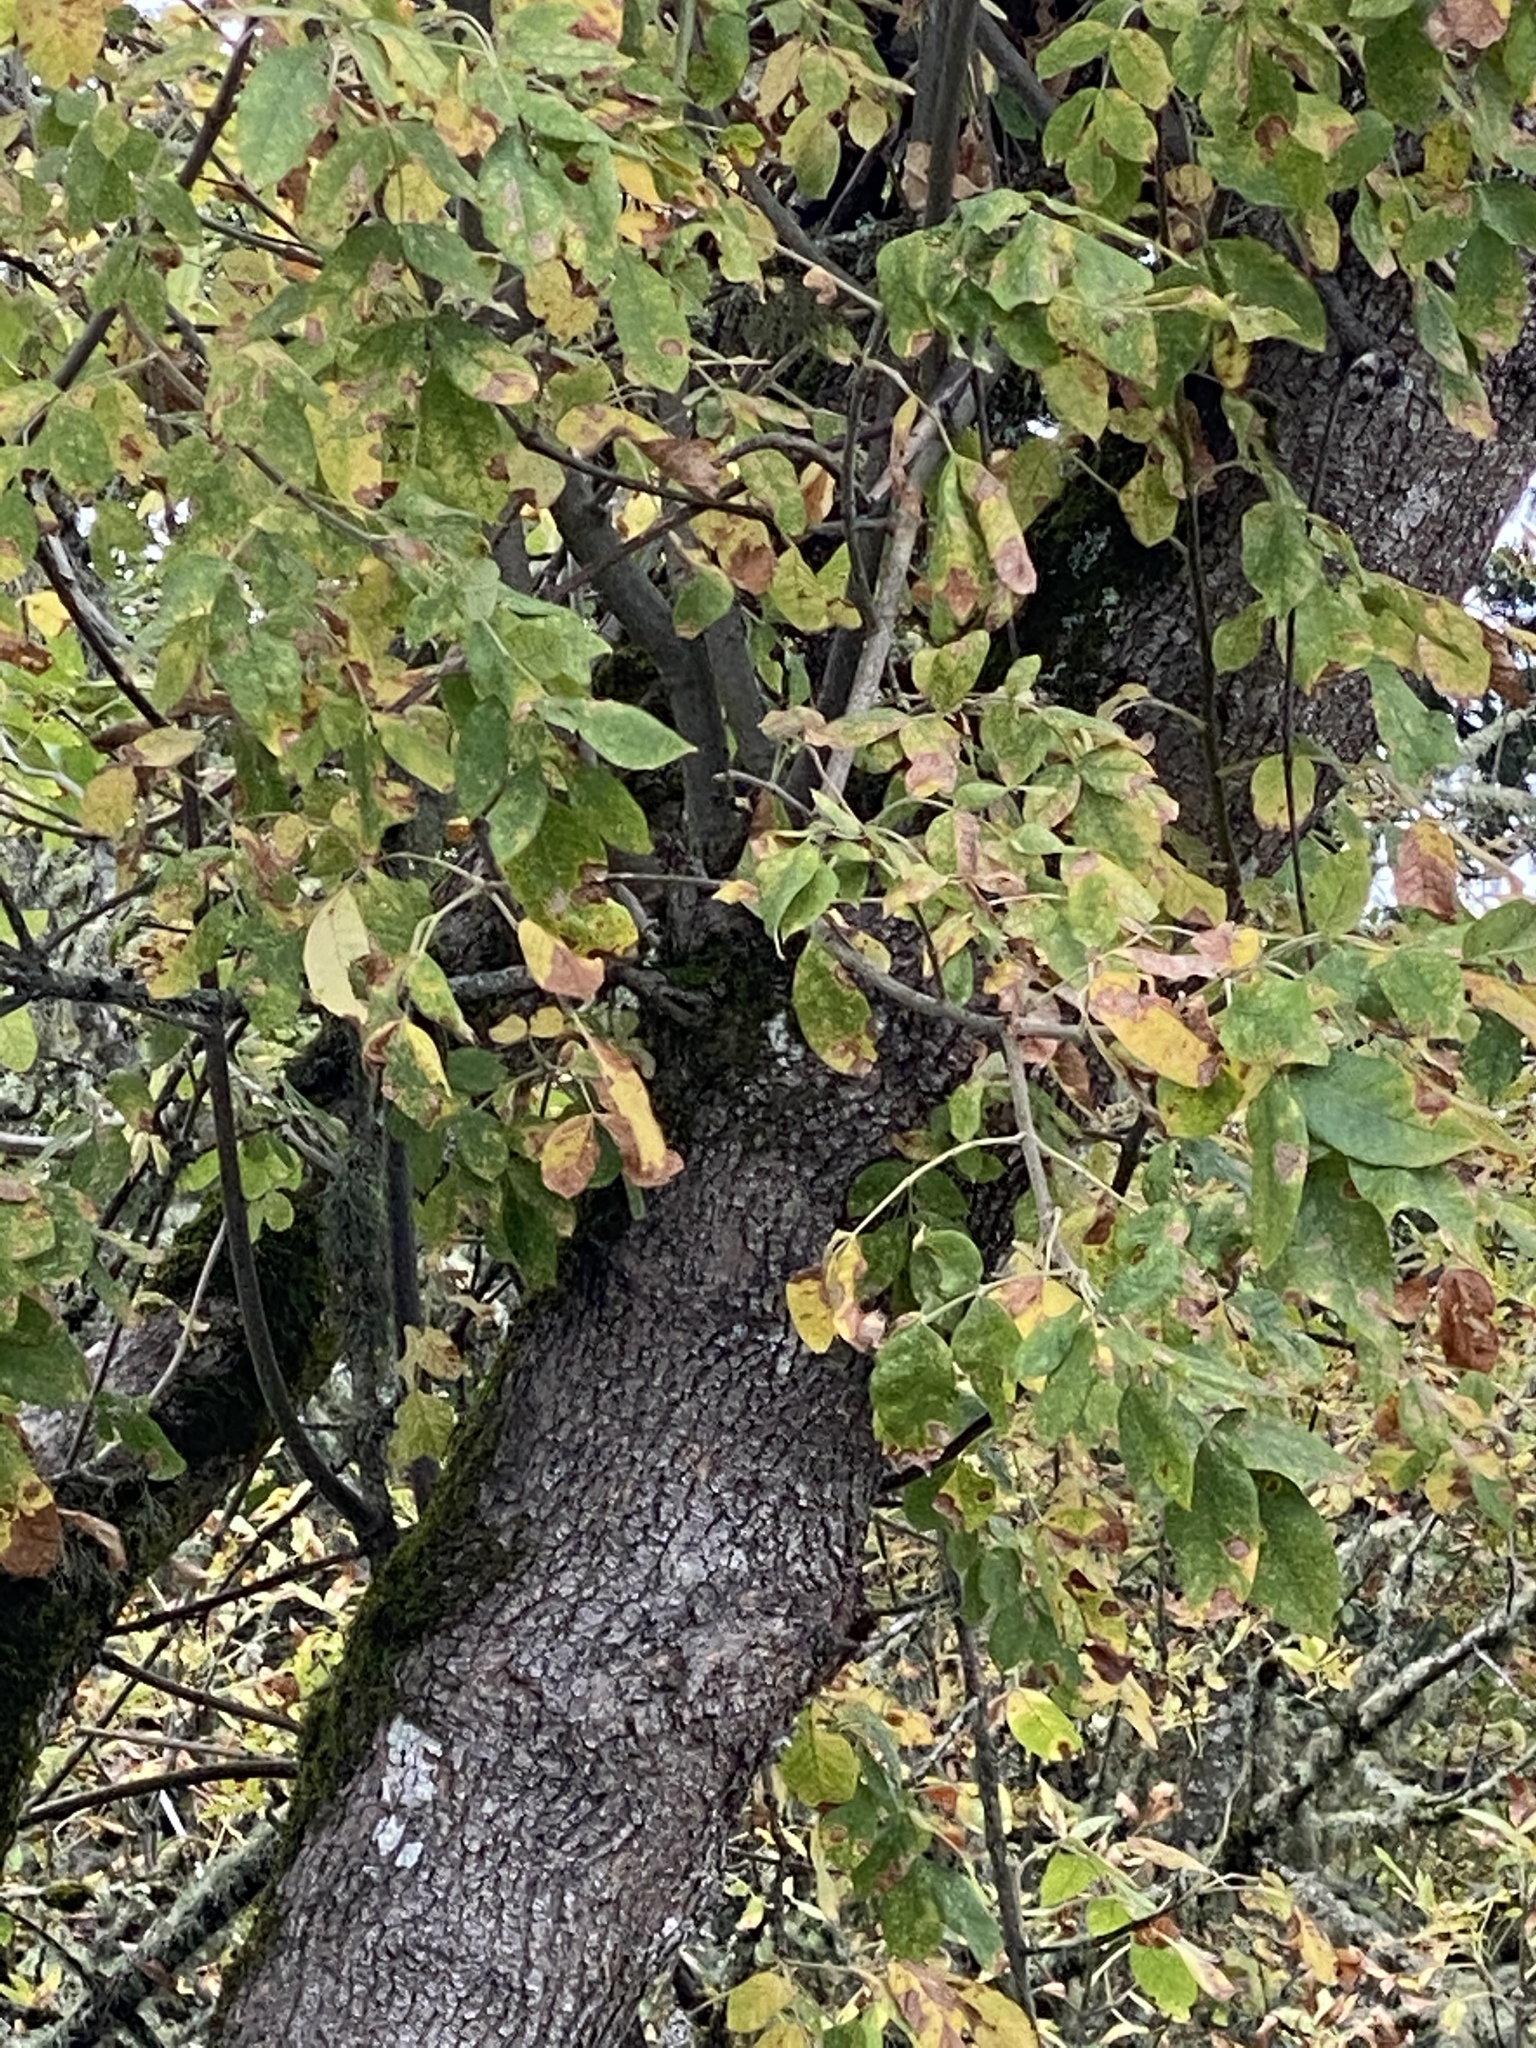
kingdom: Plantae
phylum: Tracheophyta
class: Magnoliopsida
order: Lamiales
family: Oleaceae
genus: Fraxinus
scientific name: Fraxinus latifolia
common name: Oregon ash
